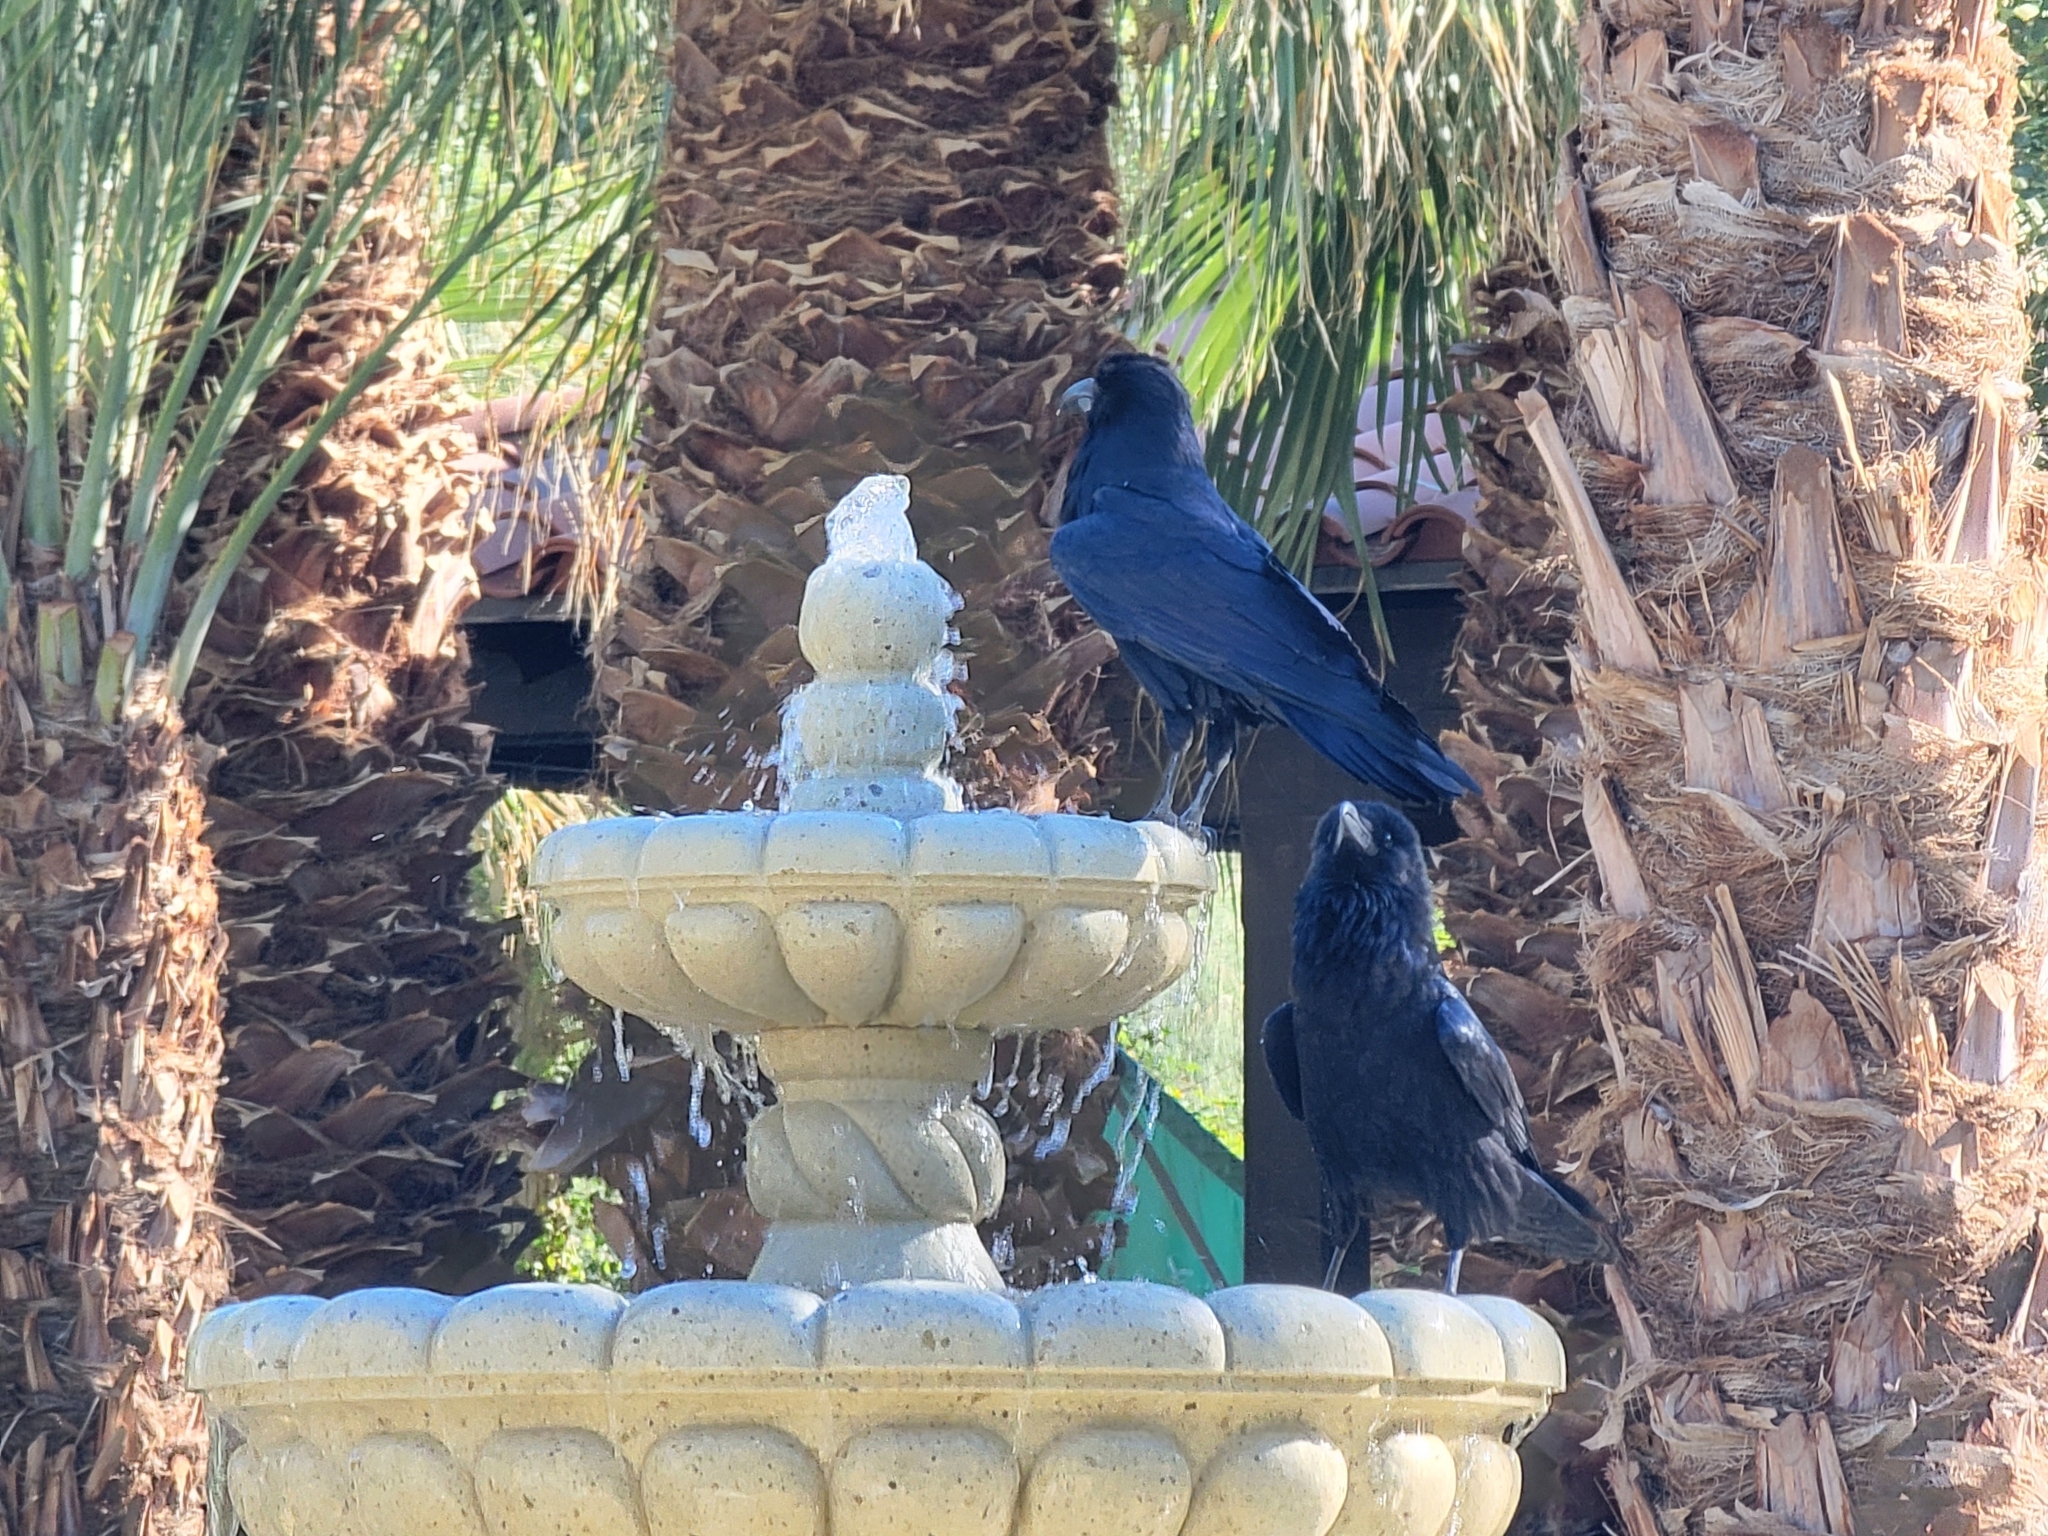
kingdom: Animalia
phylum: Chordata
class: Aves
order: Passeriformes
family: Corvidae
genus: Corvus
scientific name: Corvus corax
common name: Common raven
